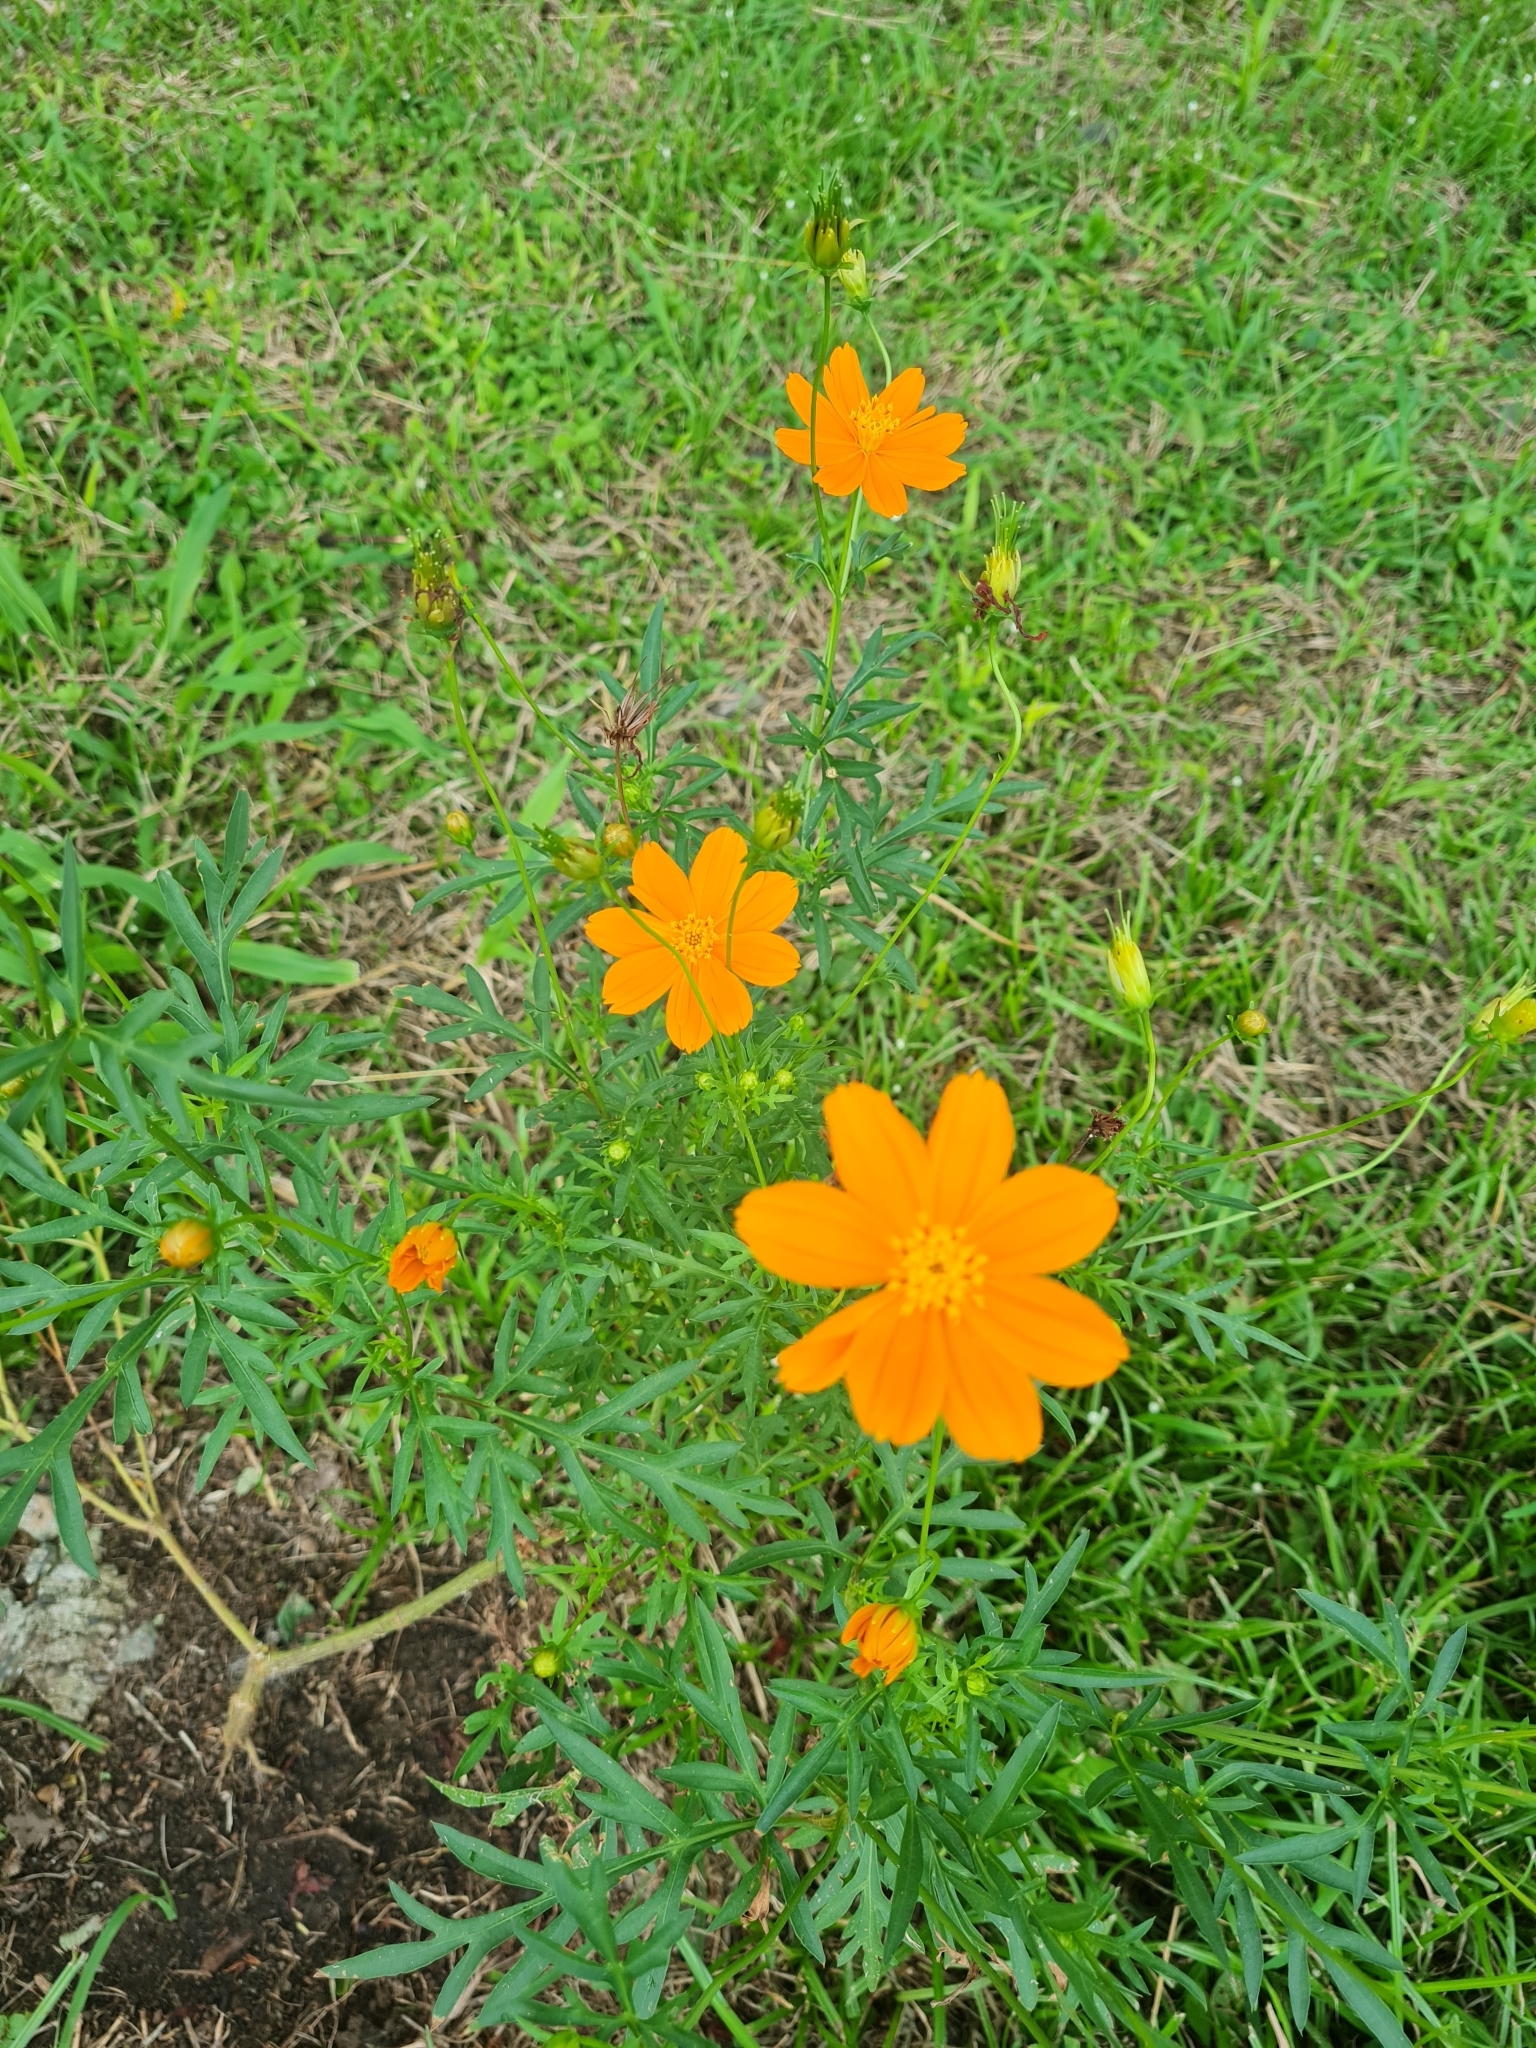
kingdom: Plantae
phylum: Tracheophyta
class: Magnoliopsida
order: Asterales
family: Asteraceae
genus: Cosmos
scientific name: Cosmos sulphureus
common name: Sulphur cosmos
